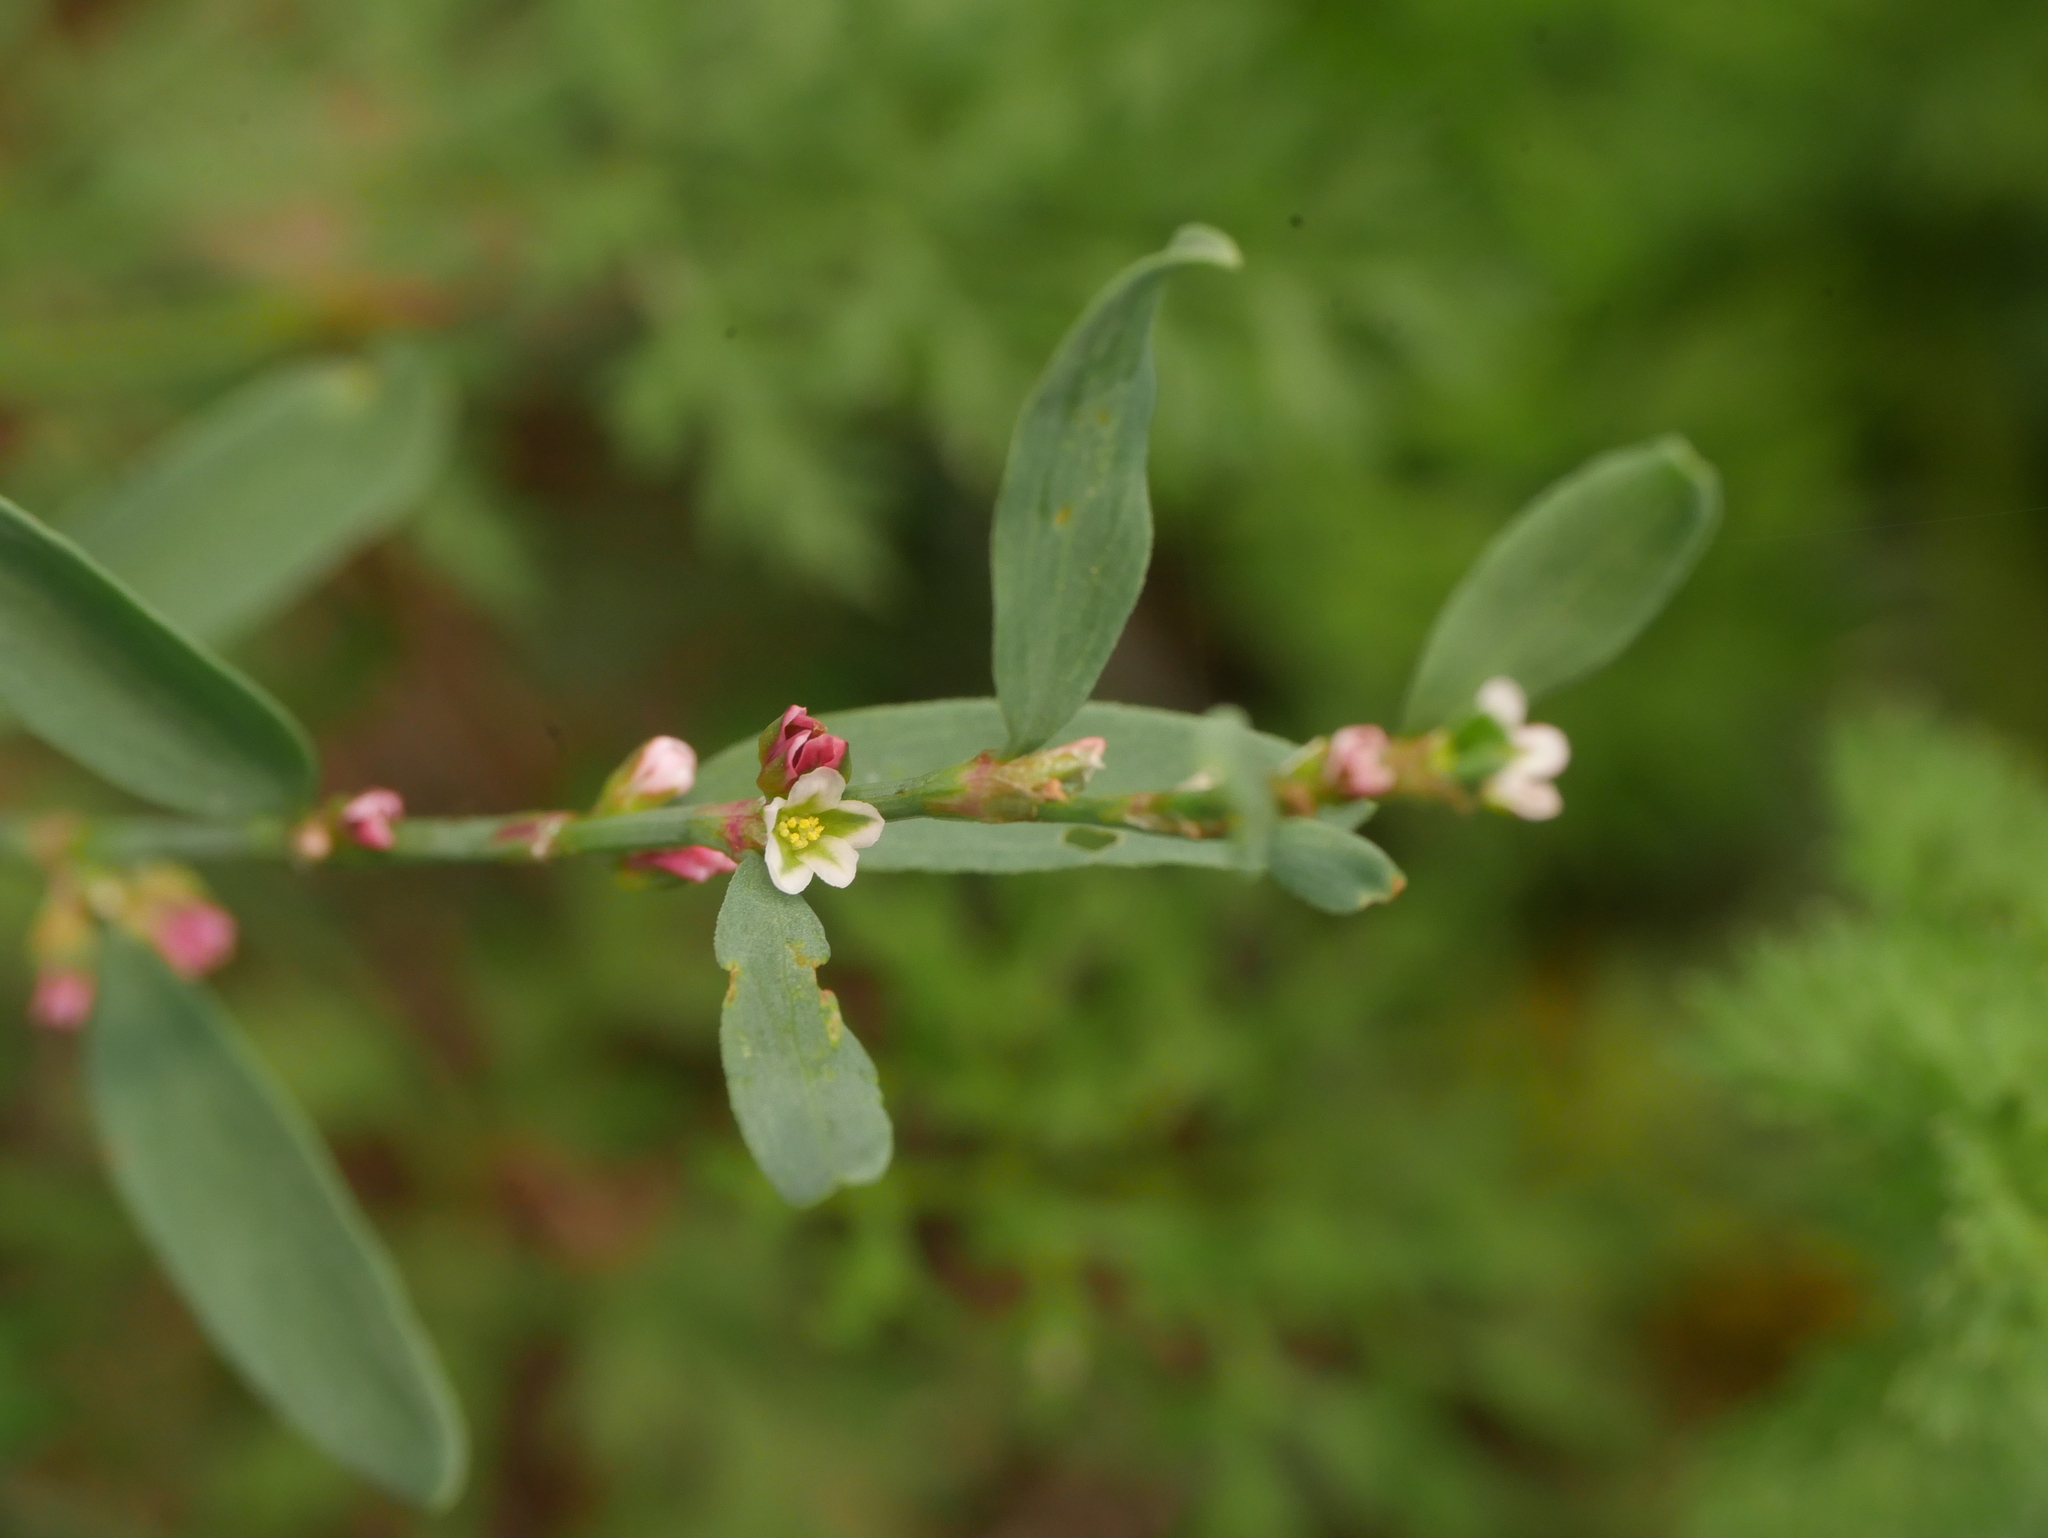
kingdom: Plantae
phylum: Tracheophyta
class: Magnoliopsida
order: Caryophyllales
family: Polygonaceae
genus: Polygonum
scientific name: Polygonum aviculare
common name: Prostrate knotweed
